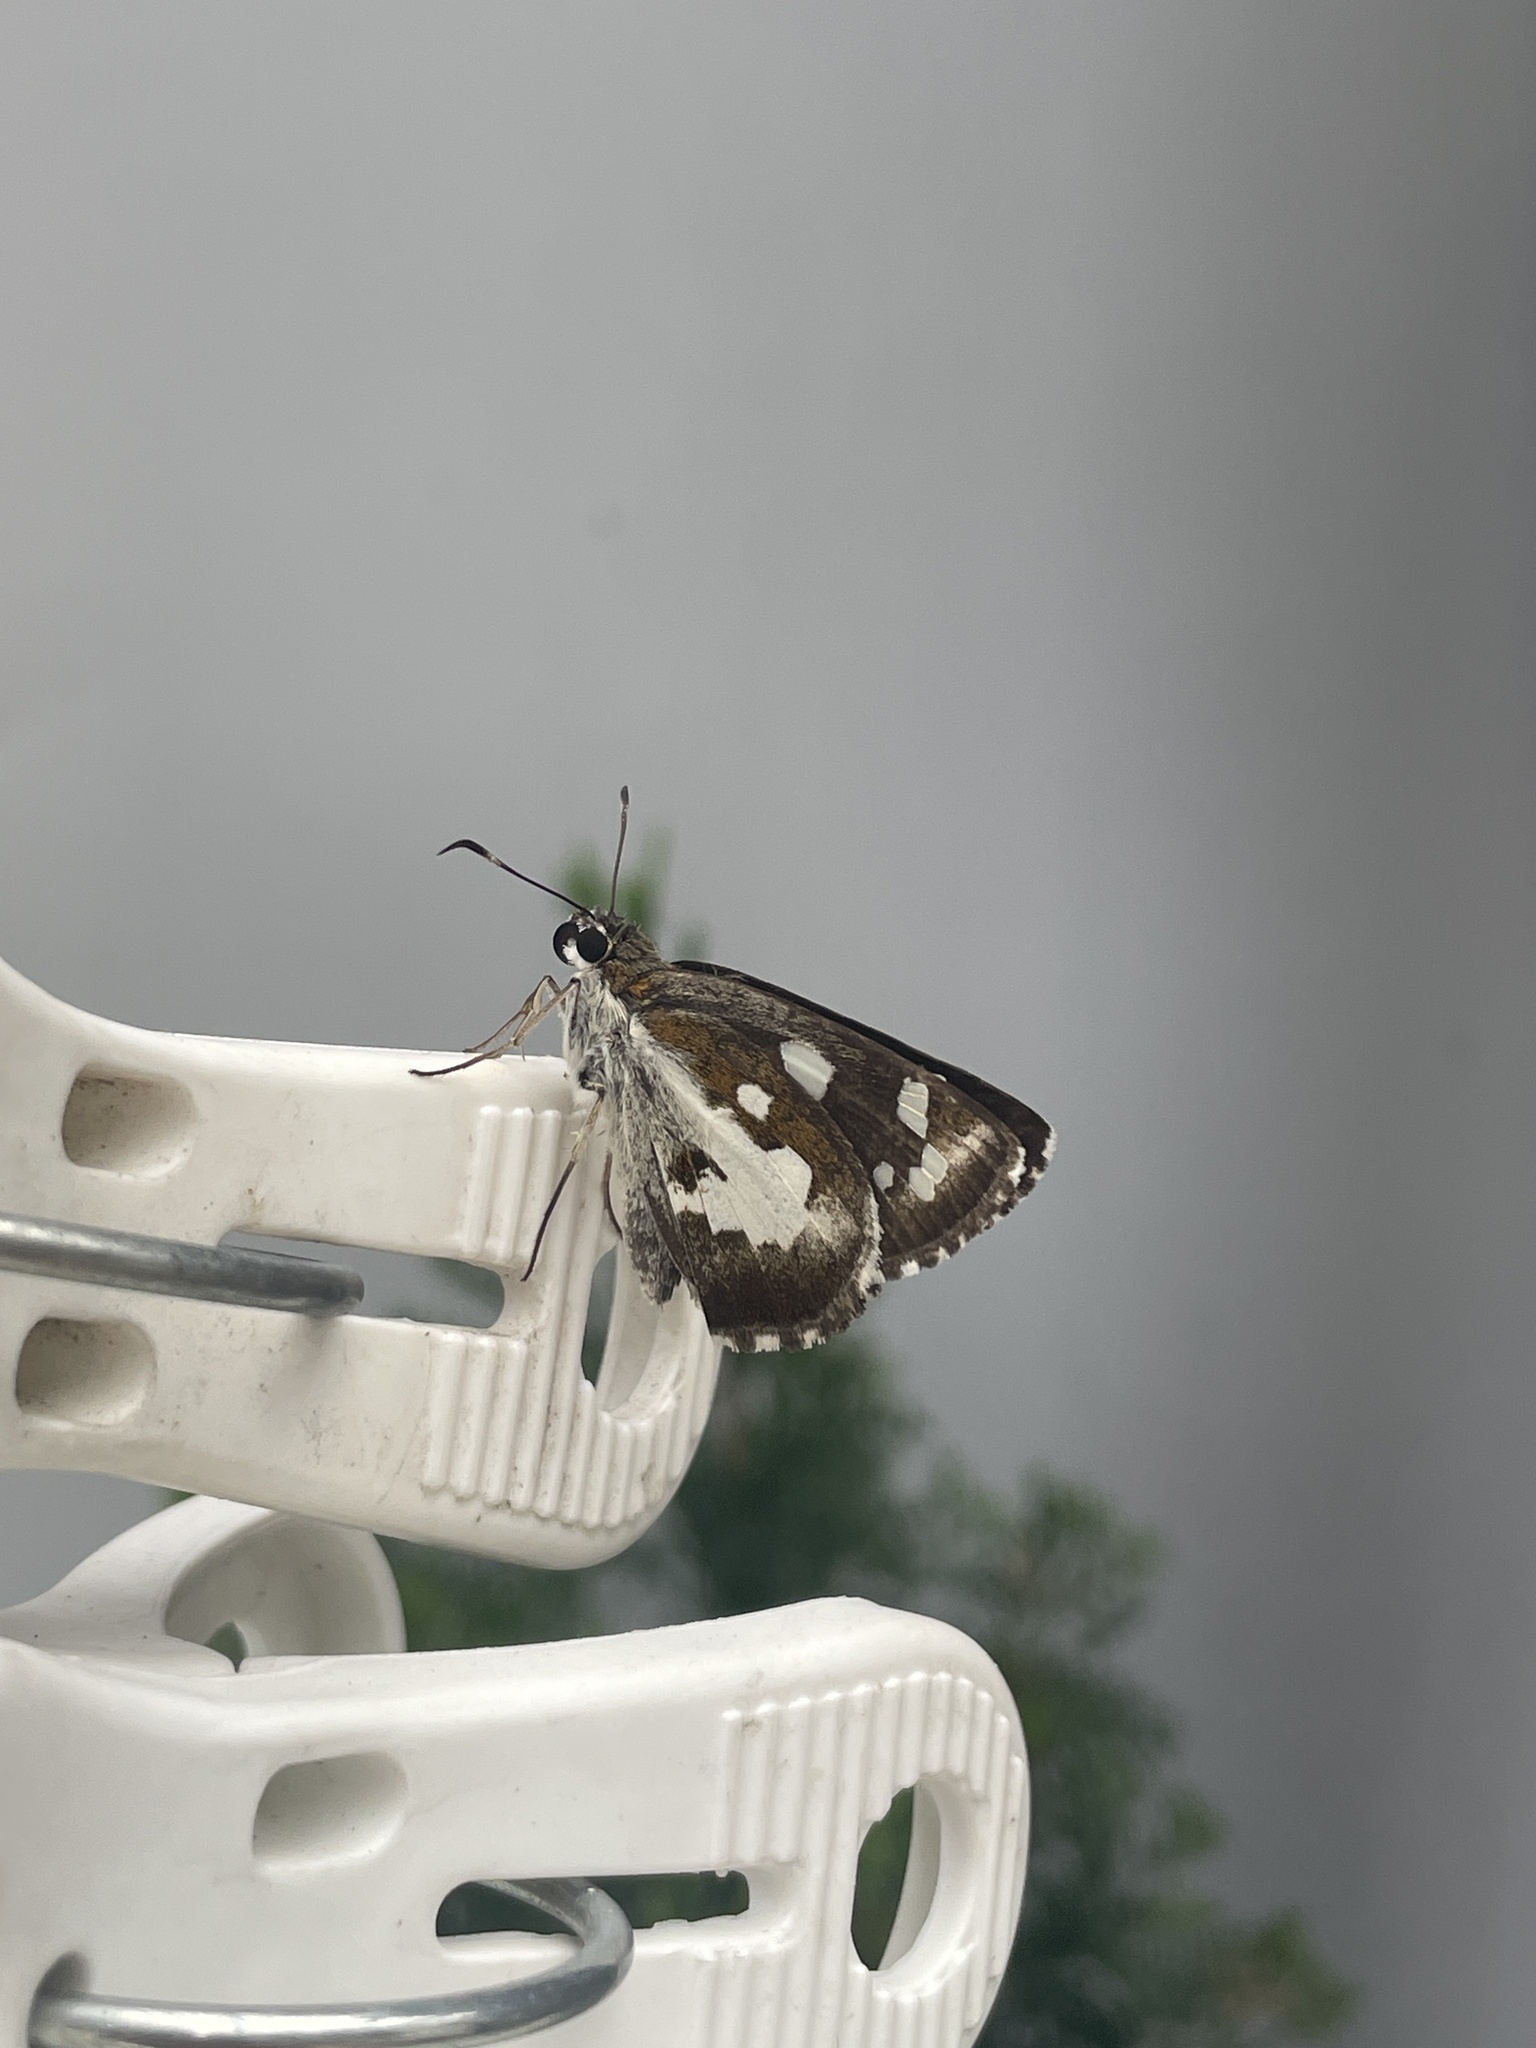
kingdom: Animalia
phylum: Arthropoda
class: Insecta
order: Lepidoptera
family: Hesperiidae
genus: Udaspes
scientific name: Udaspes folus
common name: Grass demon
